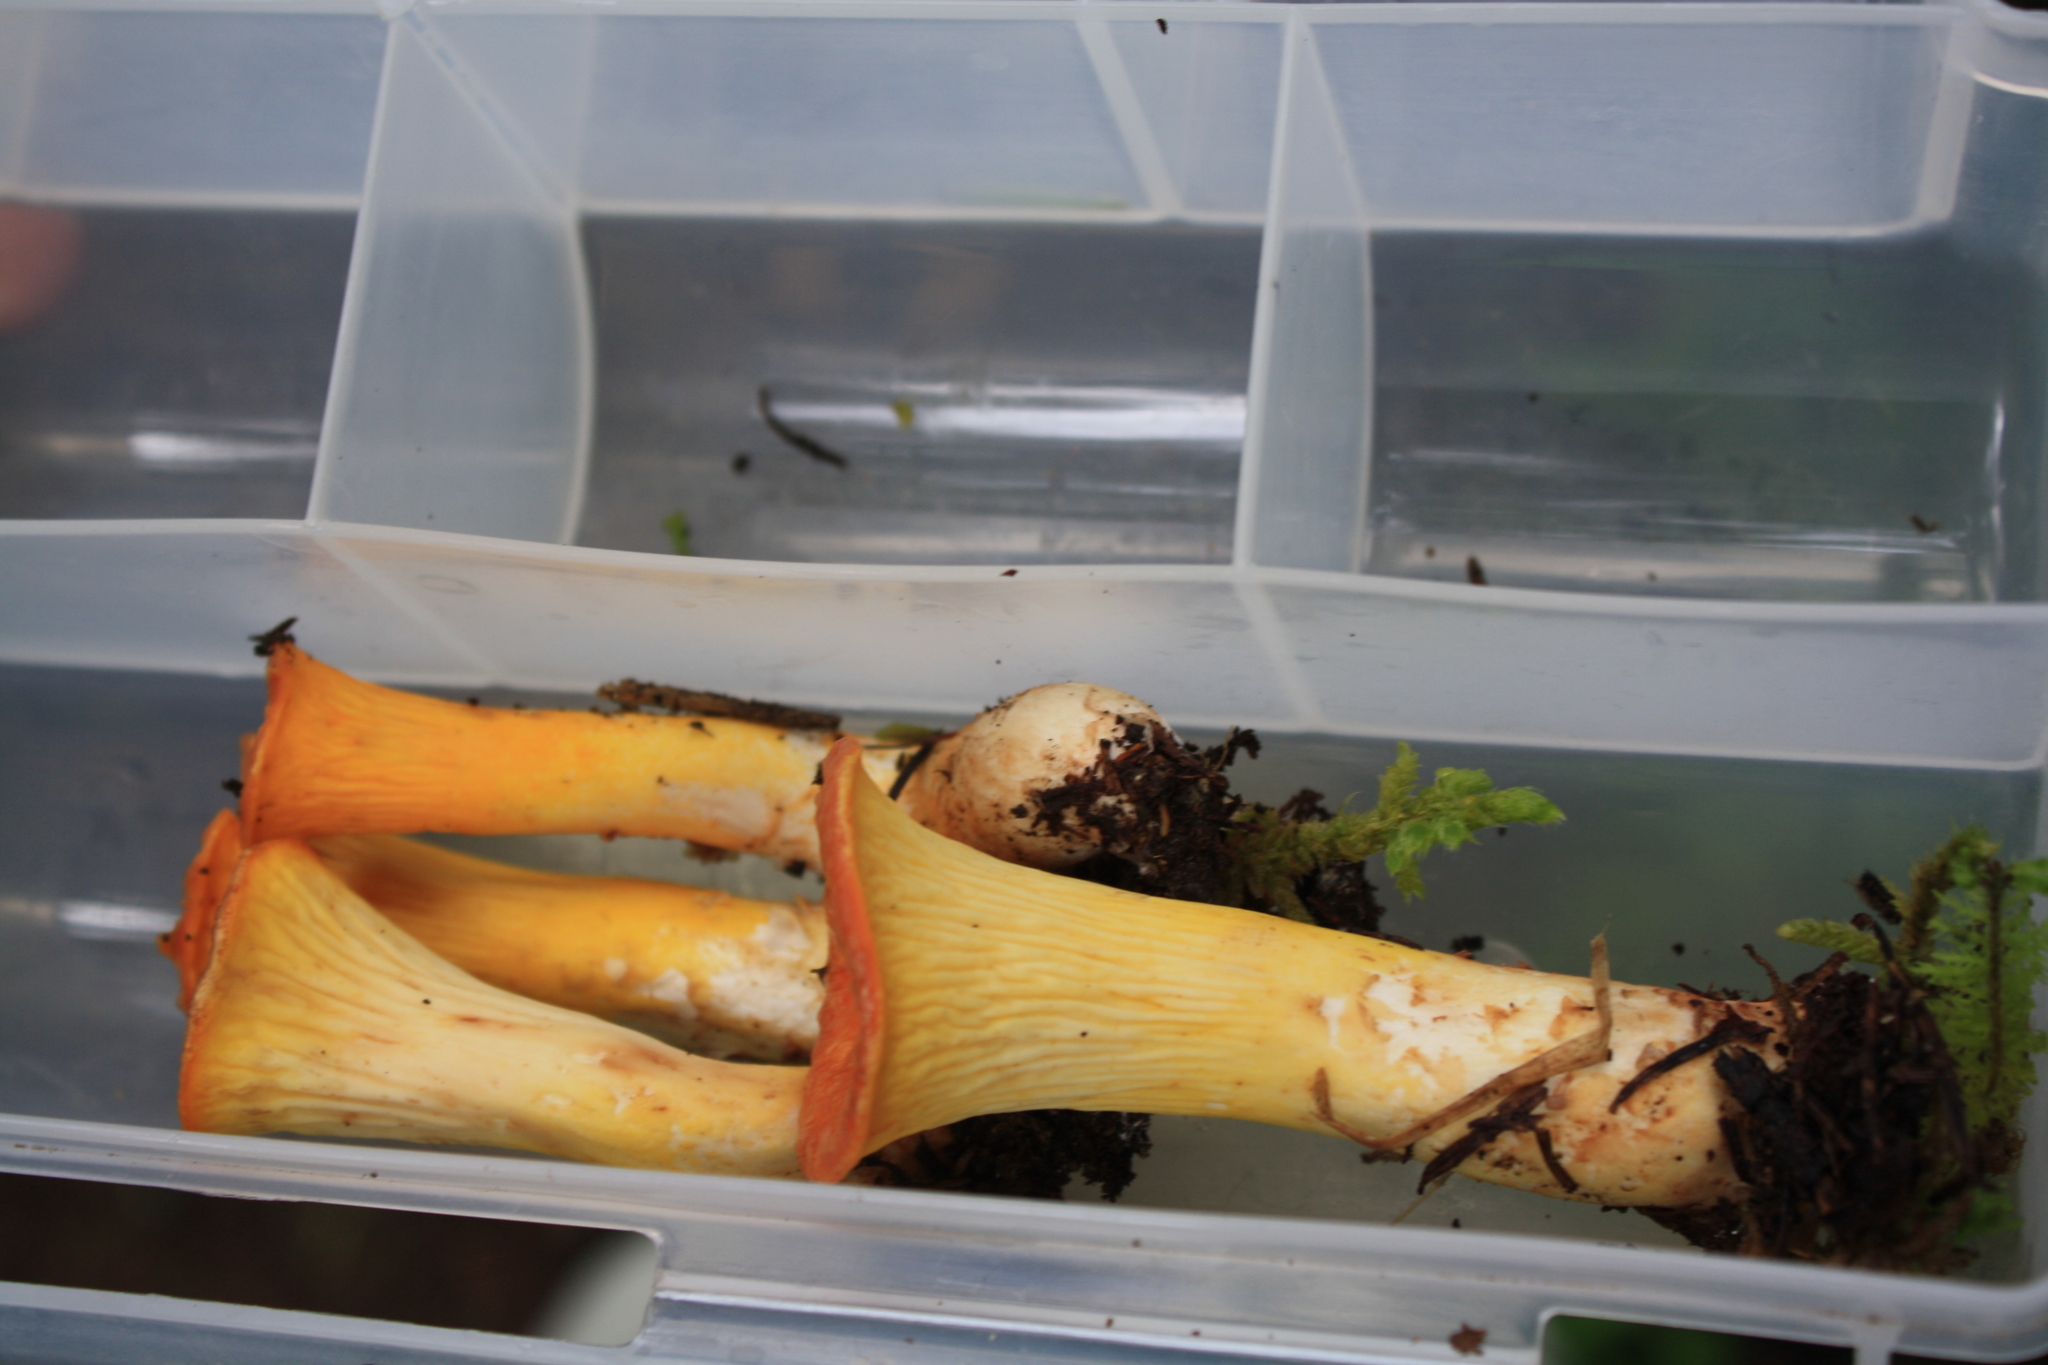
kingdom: Fungi
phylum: Basidiomycota
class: Agaricomycetes
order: Gomphales
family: Gomphaceae
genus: Turbinellus
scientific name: Turbinellus floccosus
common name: Scaly chanterelle
